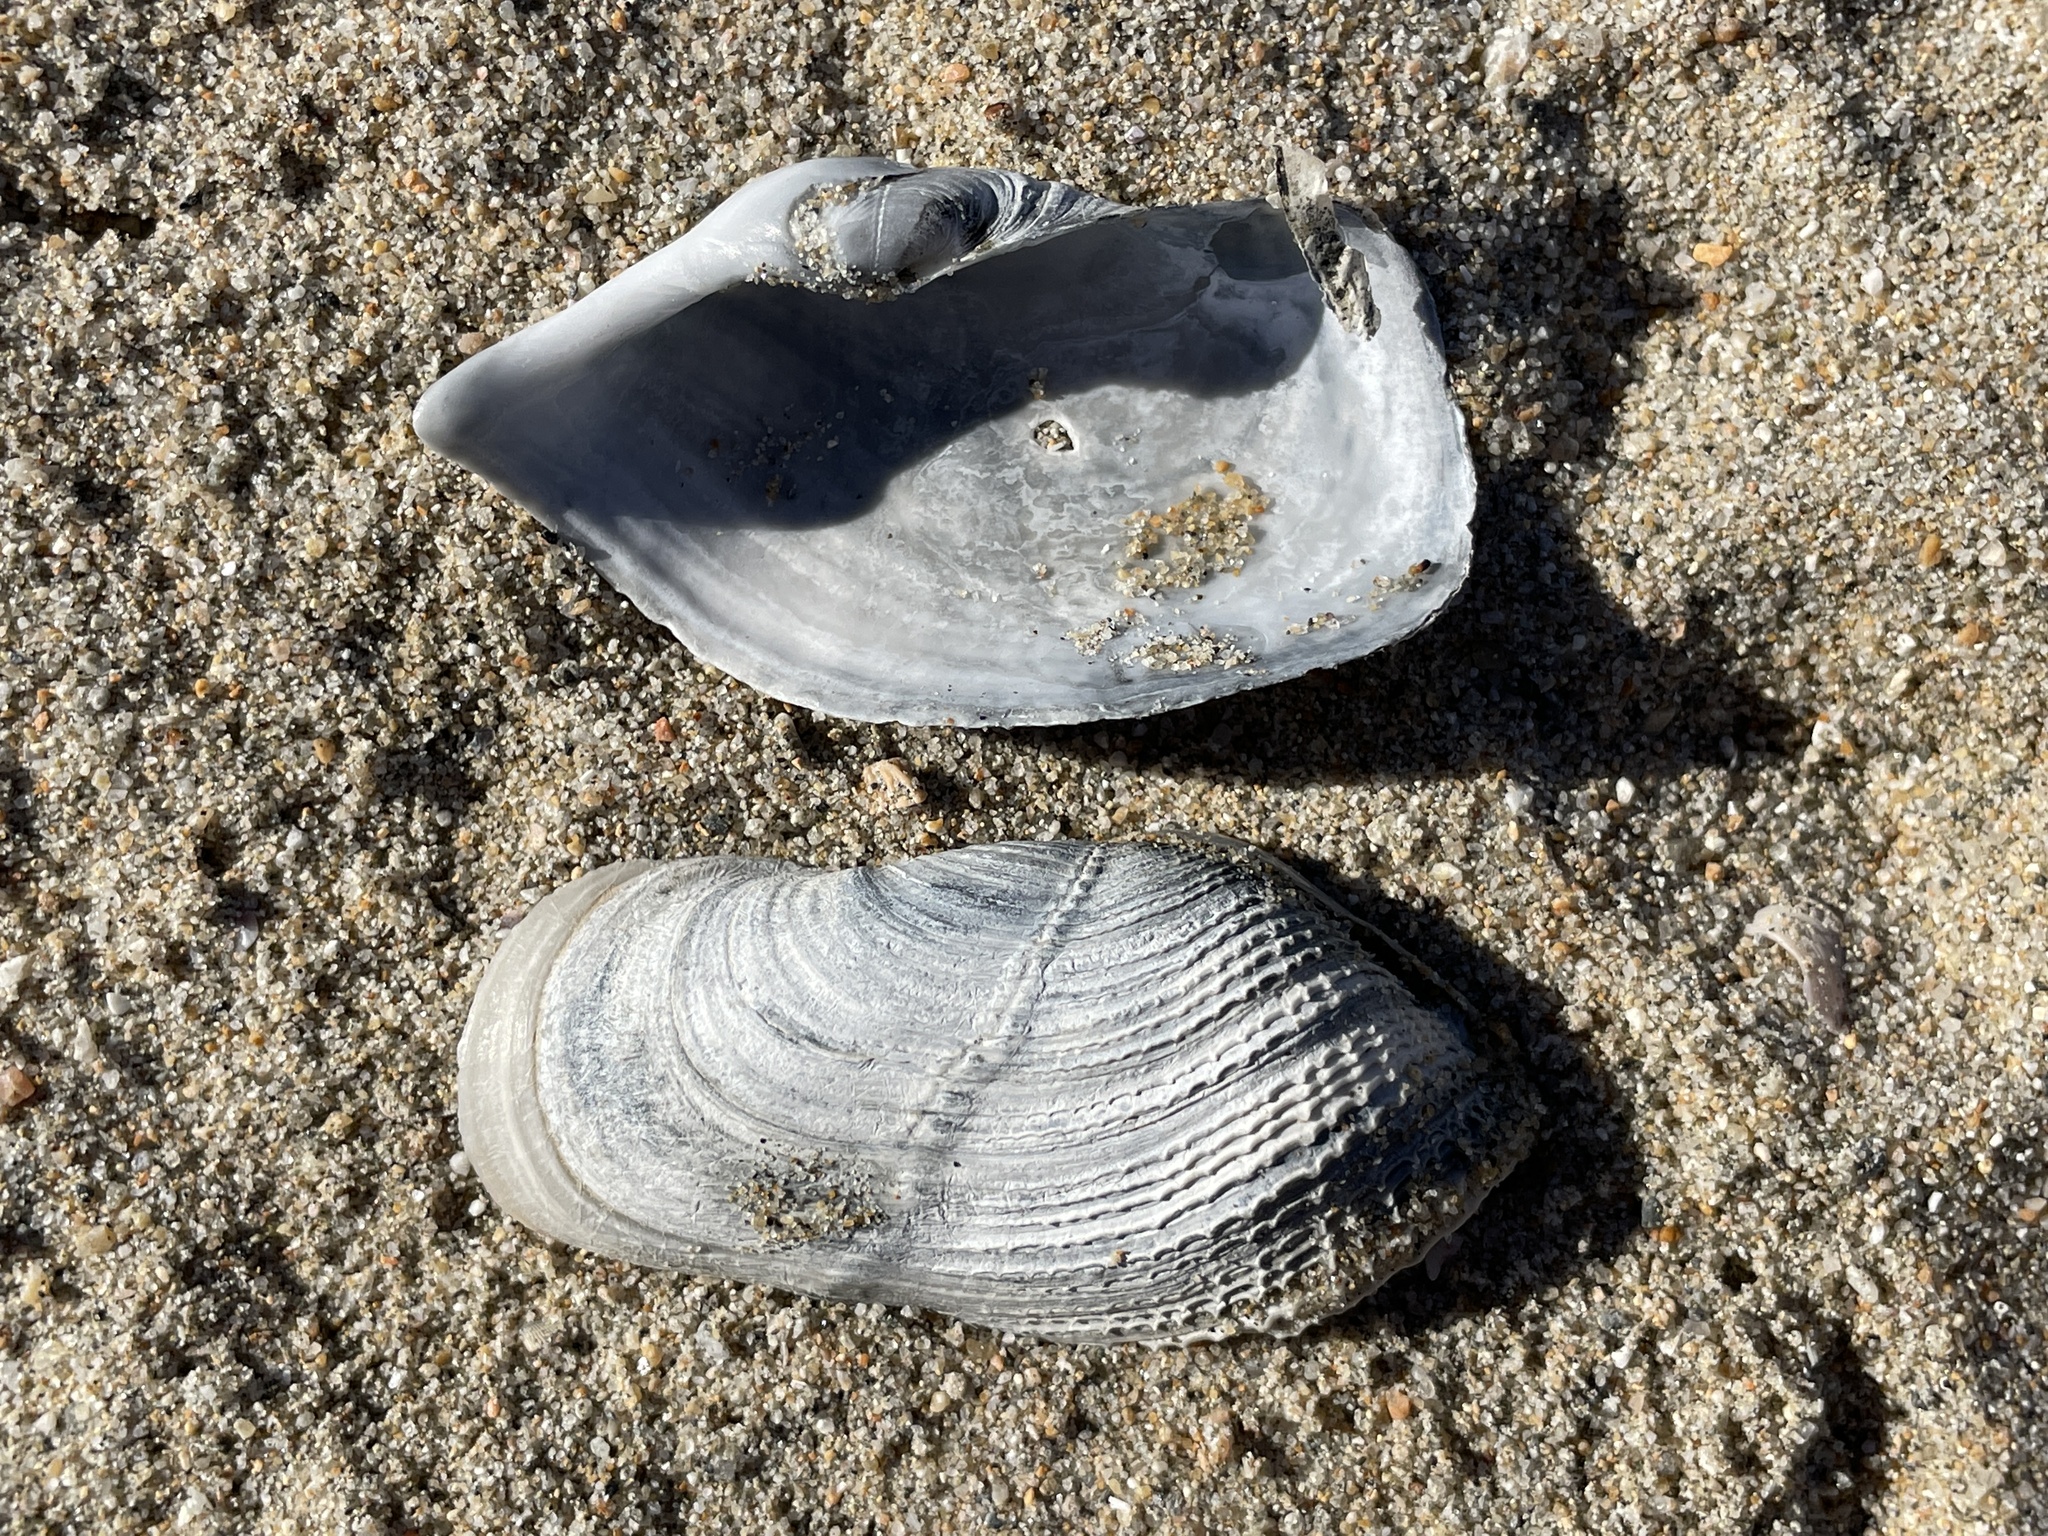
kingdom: Animalia
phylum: Mollusca
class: Bivalvia
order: Myida
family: Pholadidae
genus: Zirfaea
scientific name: Zirfaea pilsbryi
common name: Rough piddock
